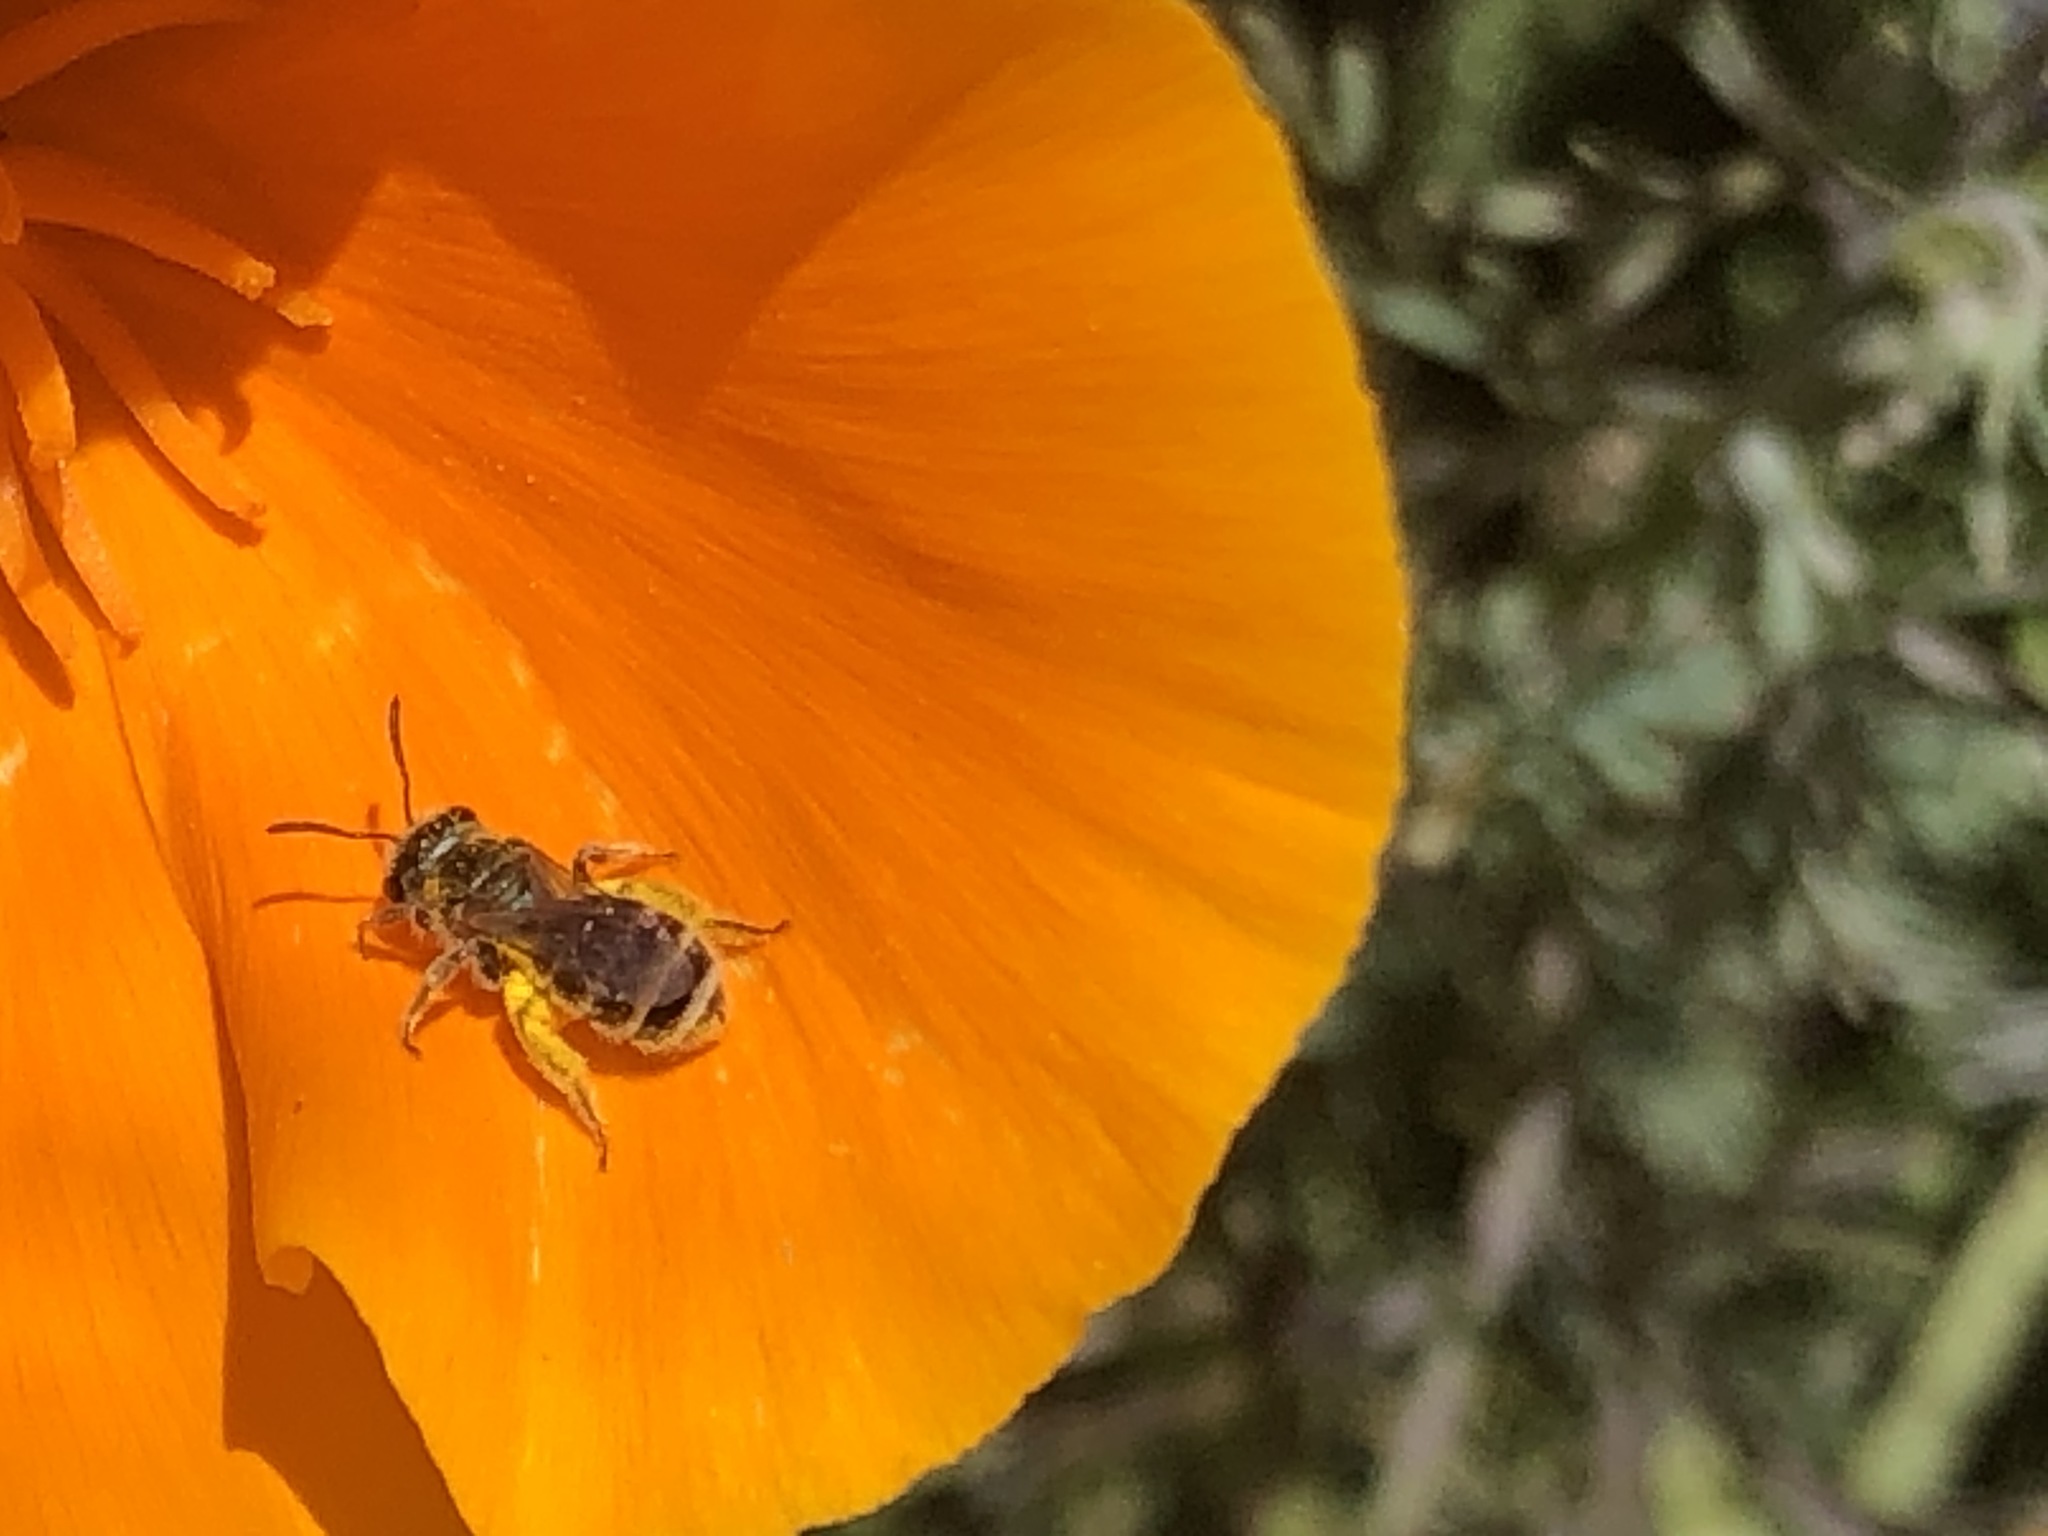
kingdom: Animalia
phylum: Arthropoda
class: Insecta
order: Hymenoptera
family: Halictidae
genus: Halictus
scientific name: Halictus tripartitus
